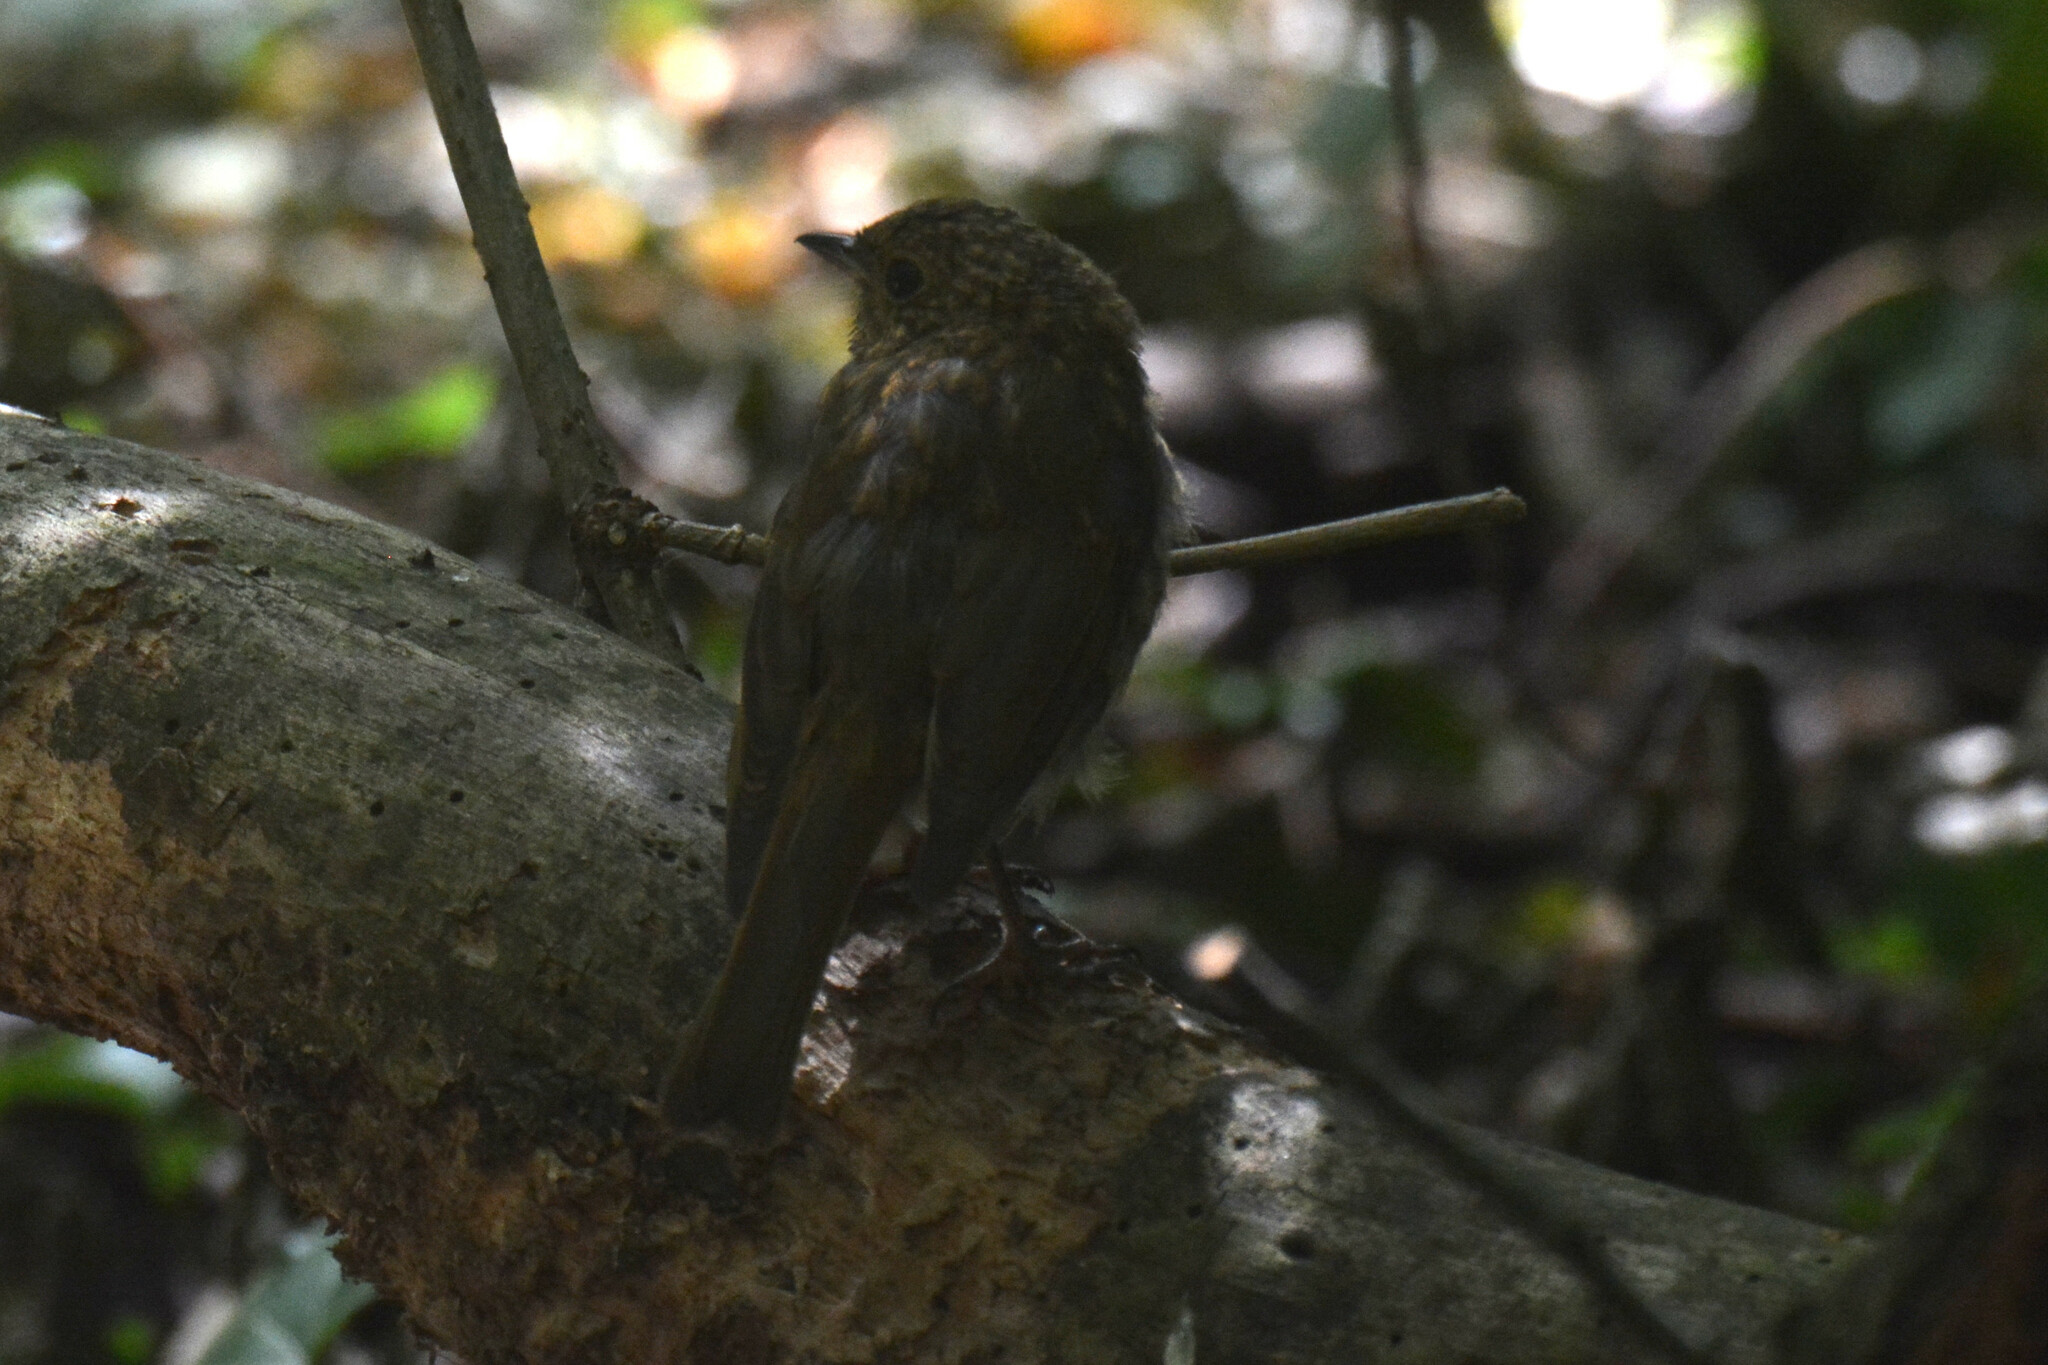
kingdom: Animalia
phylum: Chordata
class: Aves
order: Passeriformes
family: Muscicapidae
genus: Erithacus
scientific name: Erithacus rubecula
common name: European robin
